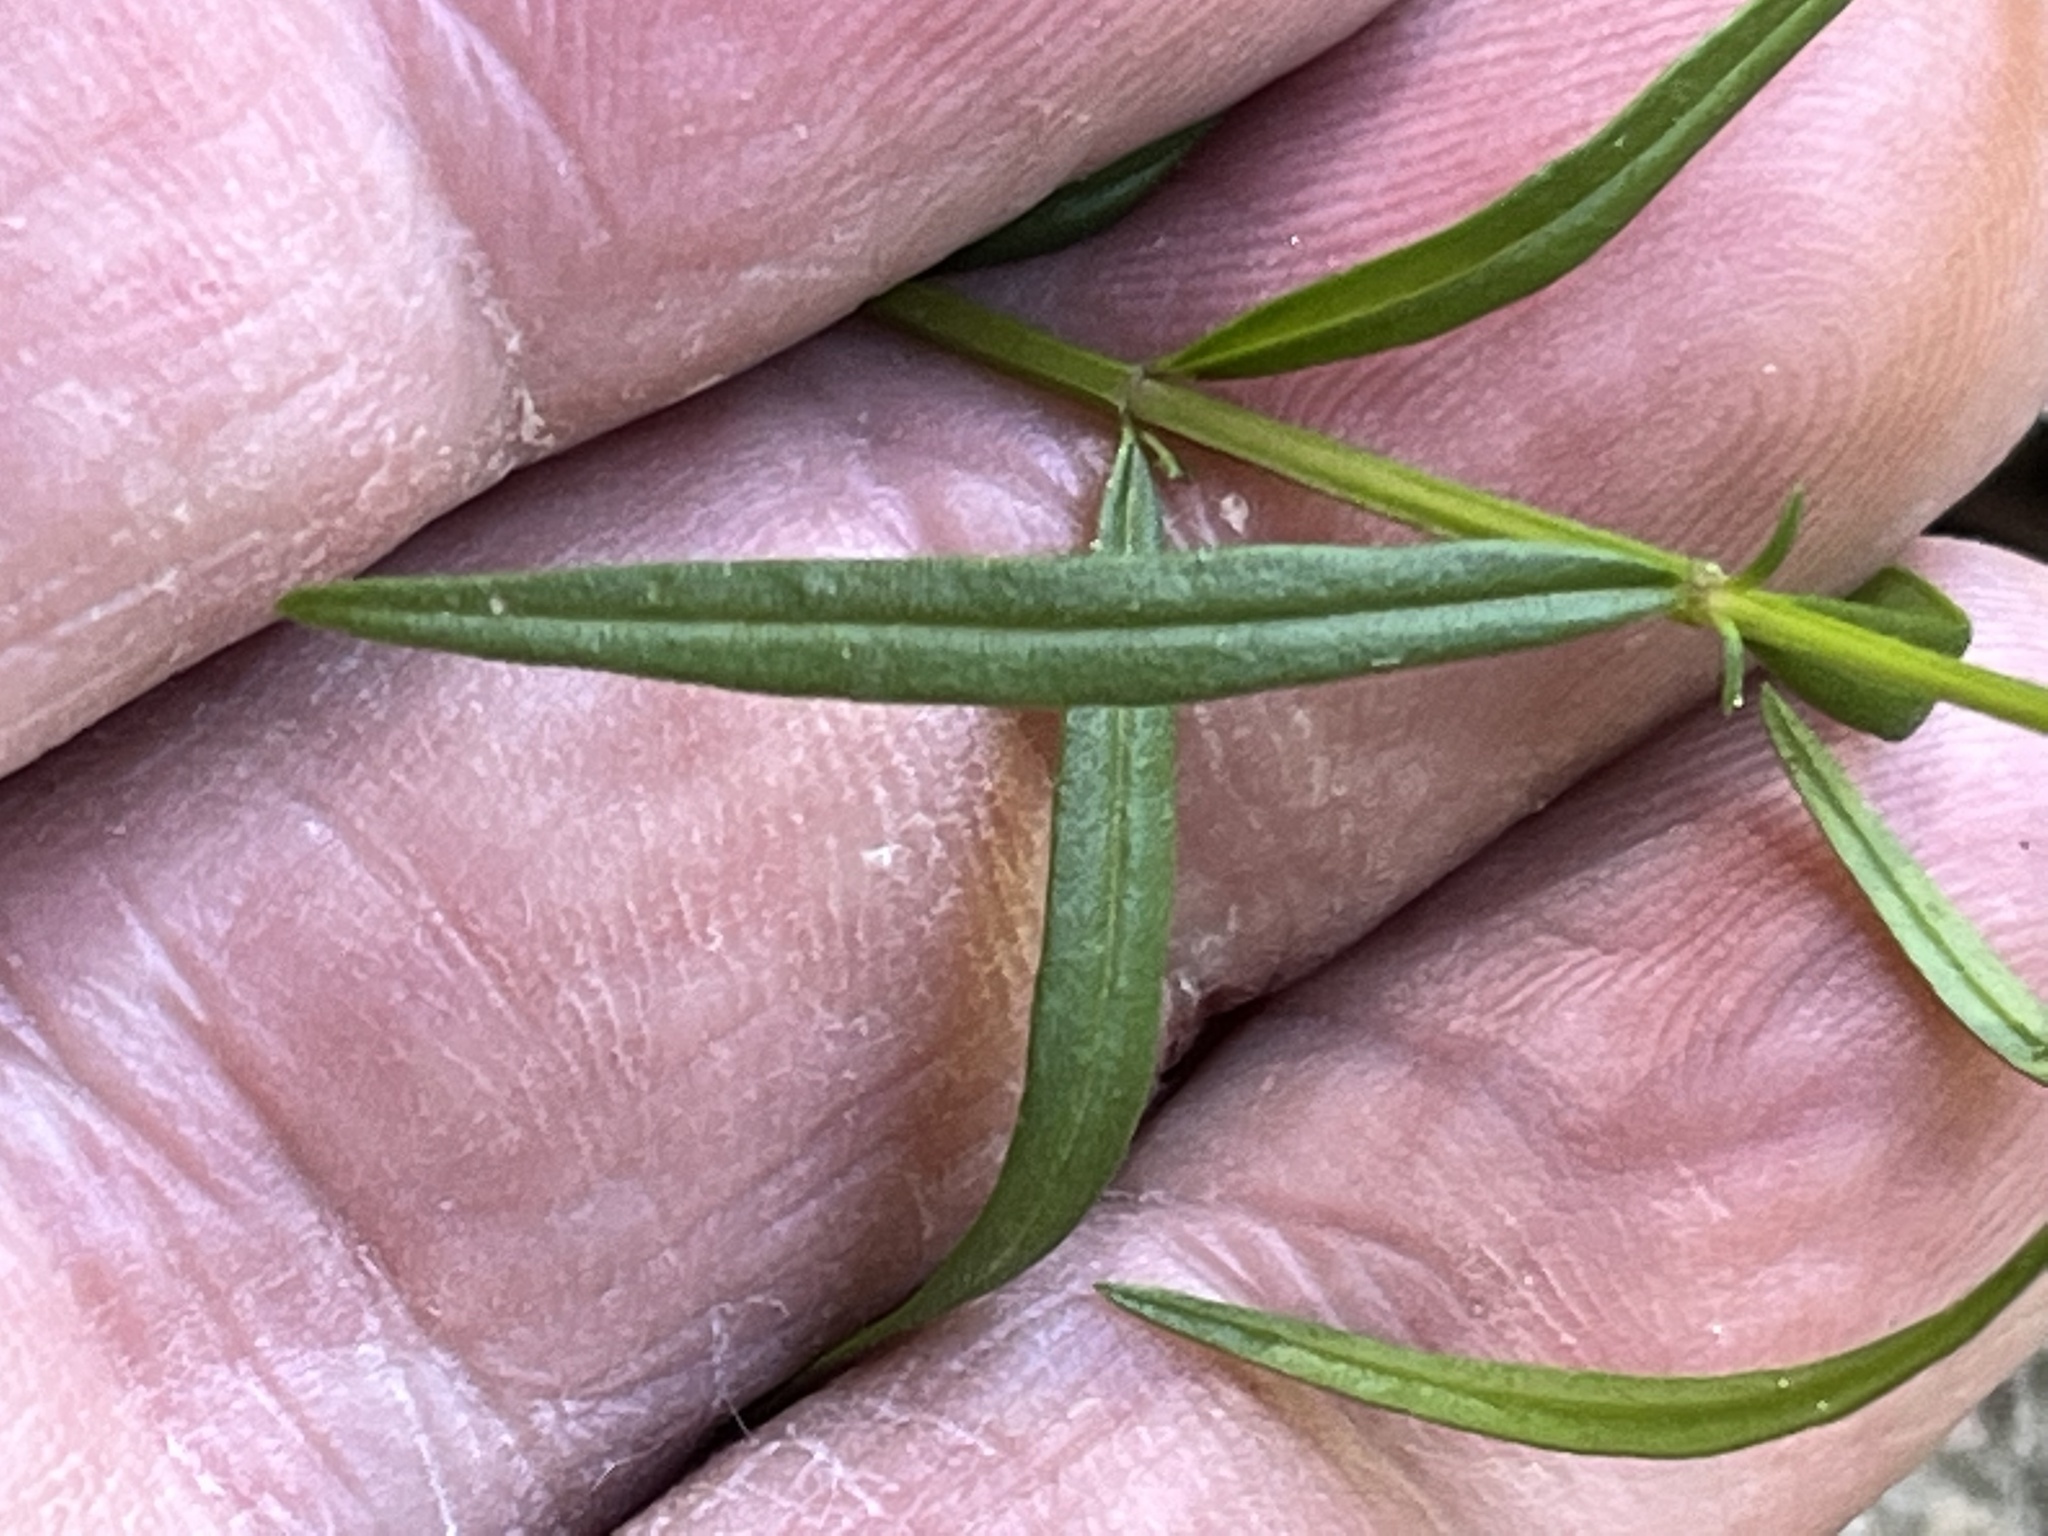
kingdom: Plantae
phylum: Tracheophyta
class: Magnoliopsida
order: Lamiales
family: Orobanchaceae
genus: Agalinis
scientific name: Agalinis tenuifolia
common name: Slender agalinis
